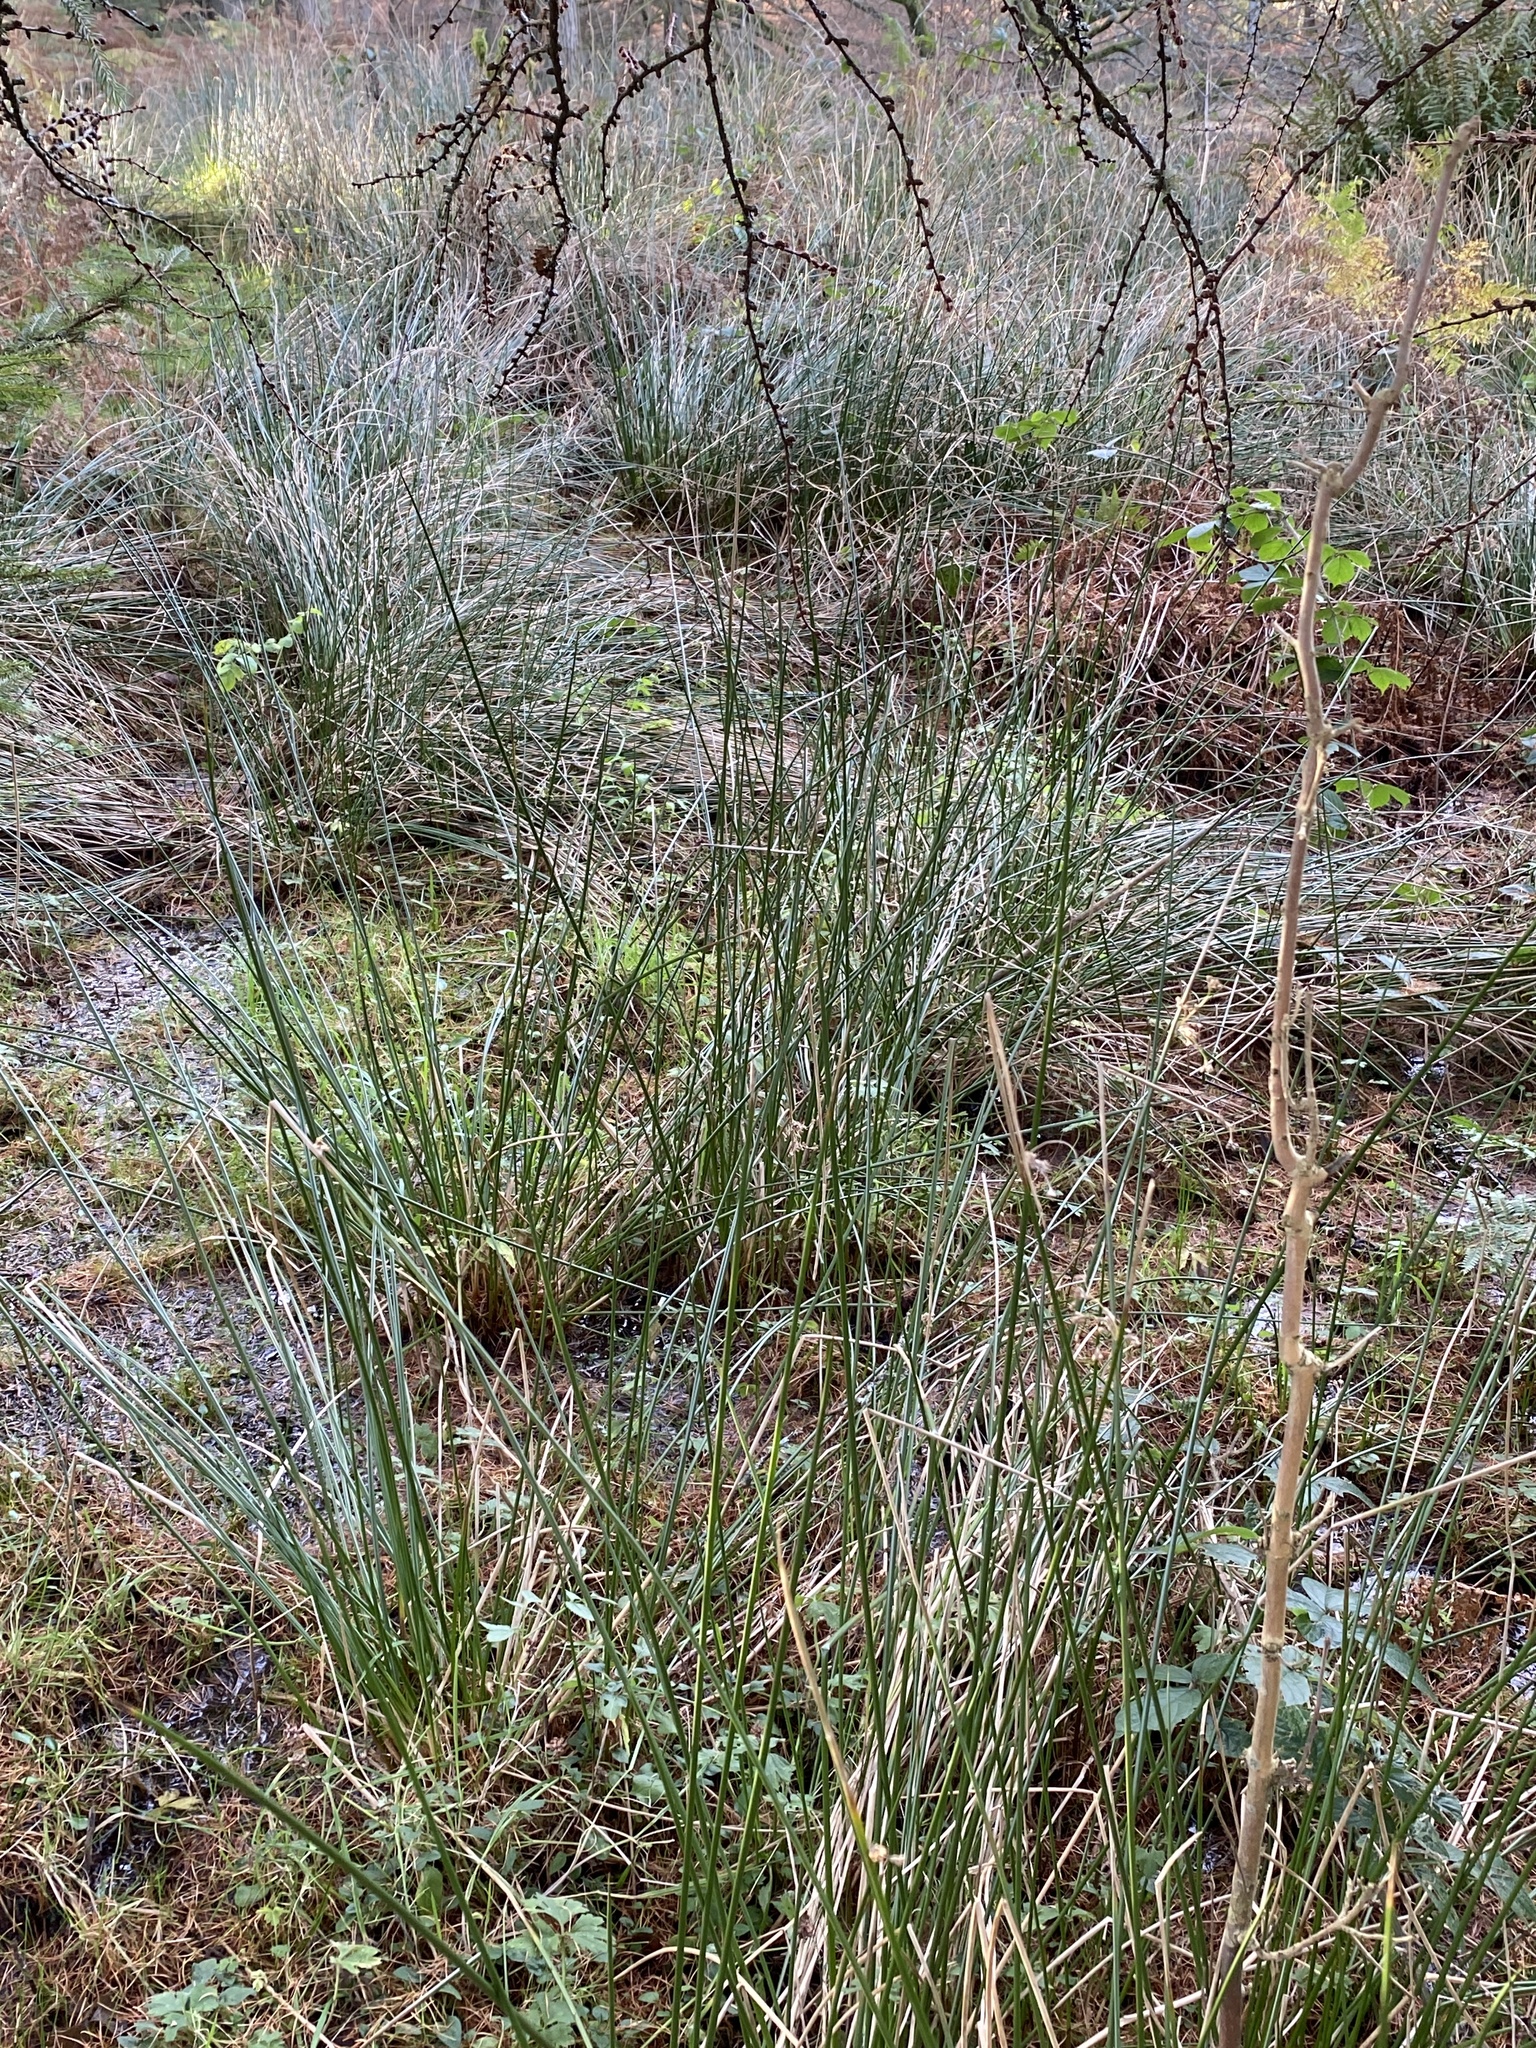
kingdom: Plantae
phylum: Tracheophyta
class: Liliopsida
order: Poales
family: Juncaceae
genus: Juncus
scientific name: Juncus effusus
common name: Soft rush
